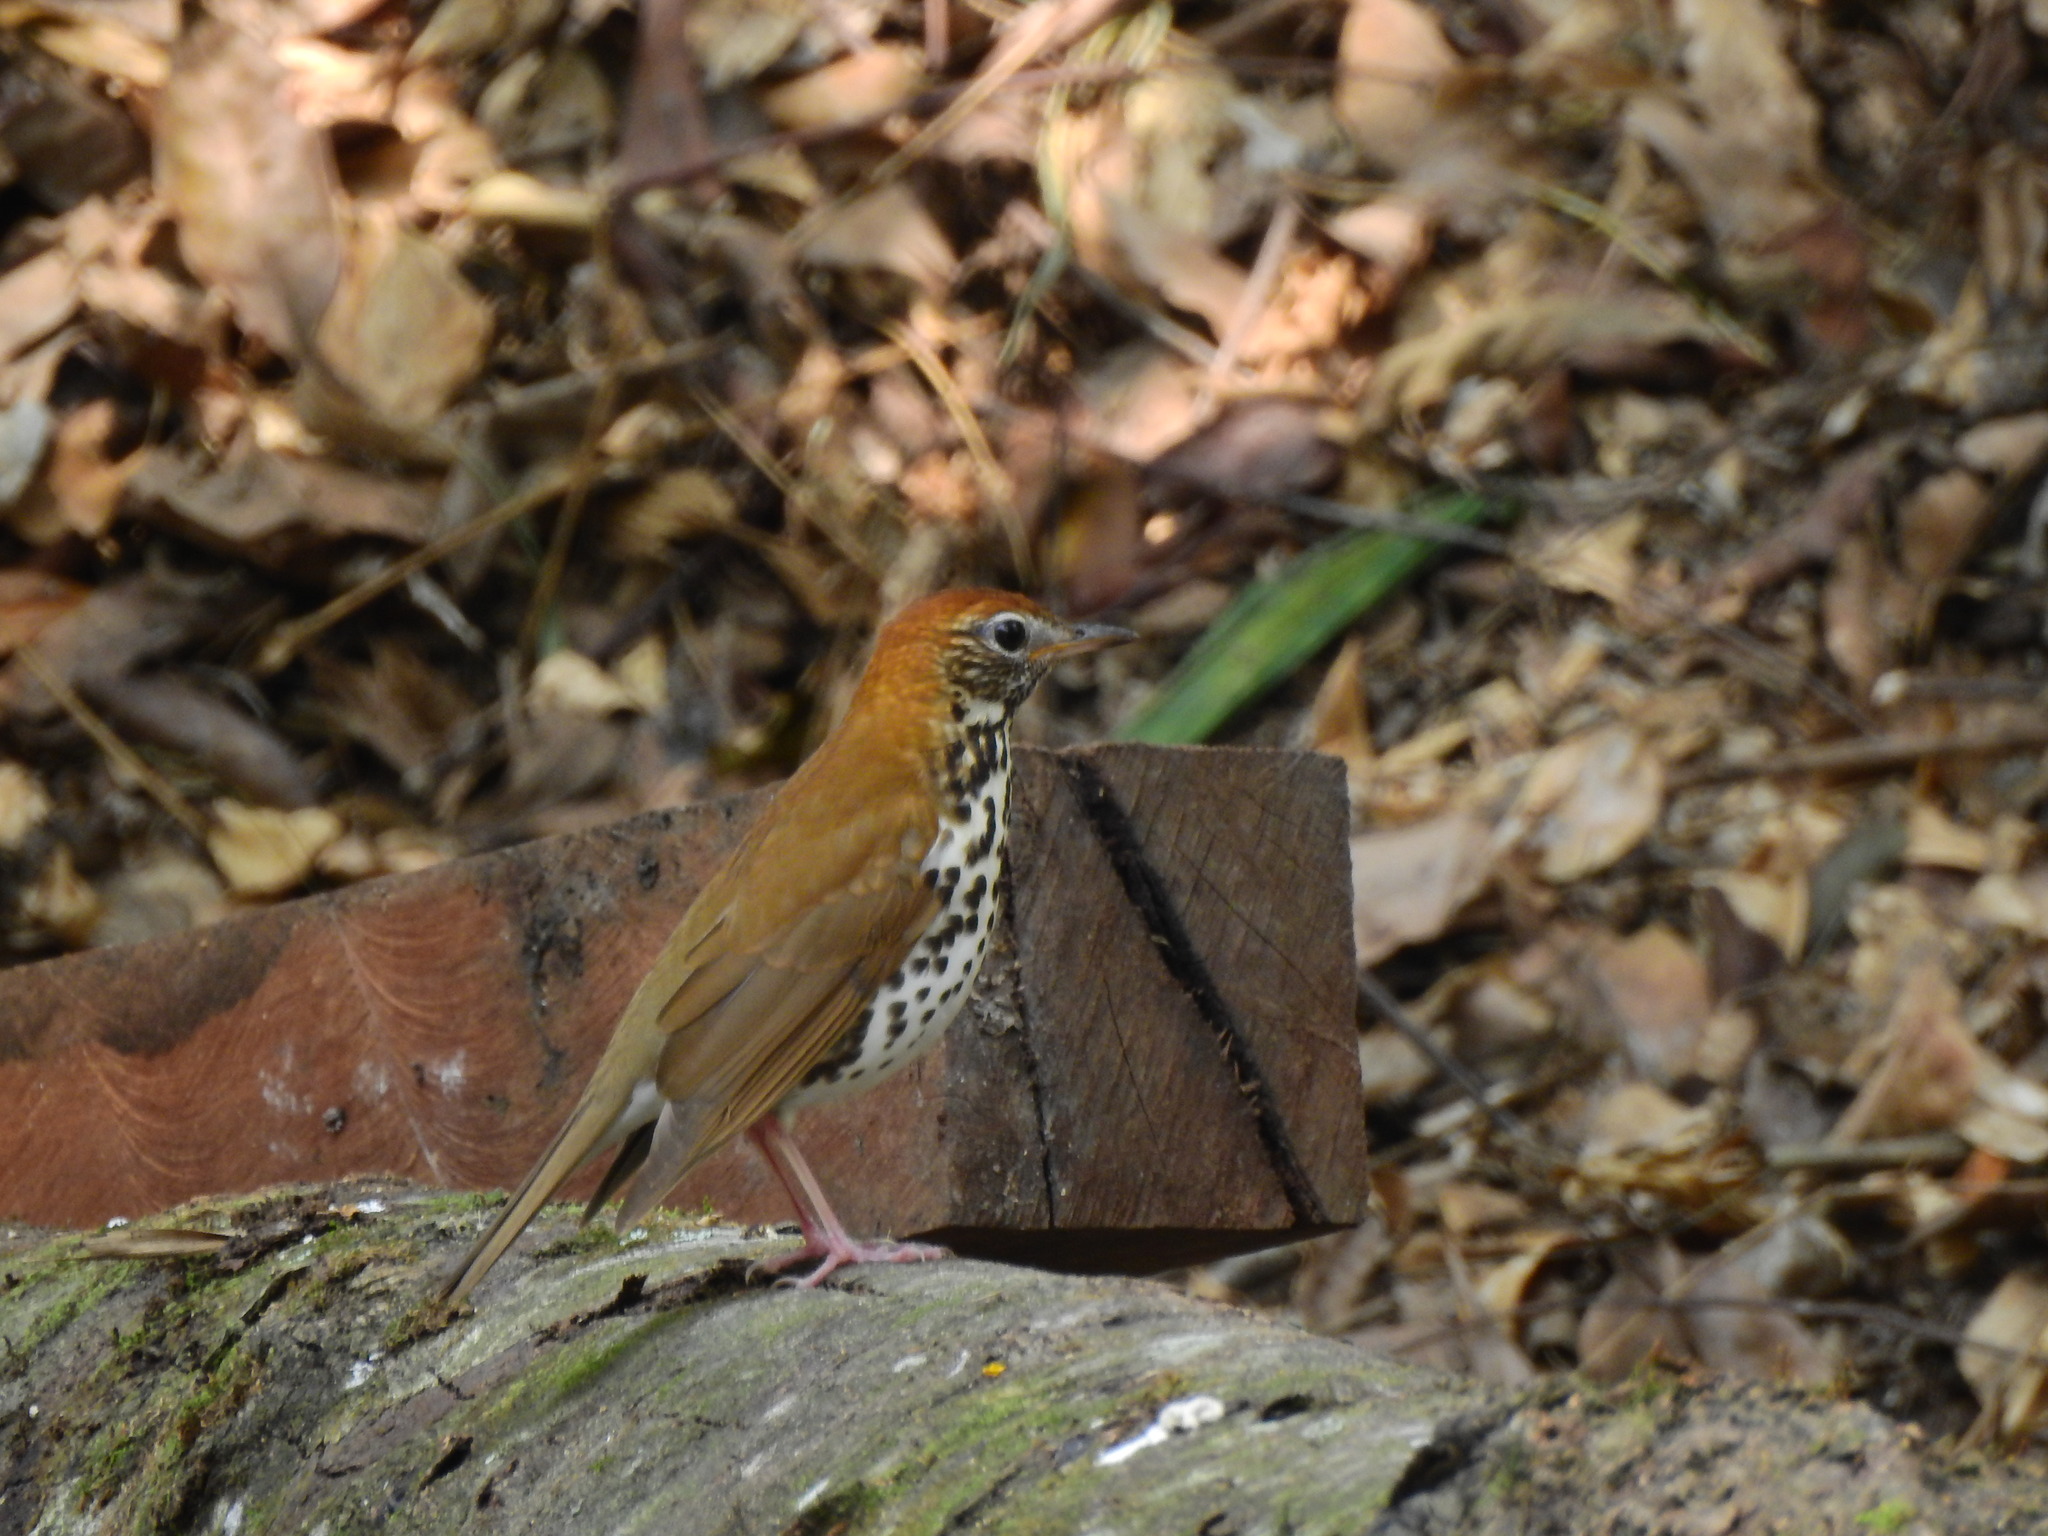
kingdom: Animalia
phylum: Chordata
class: Aves
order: Passeriformes
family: Turdidae
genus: Hylocichla
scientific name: Hylocichla mustelina
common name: Wood thrush
